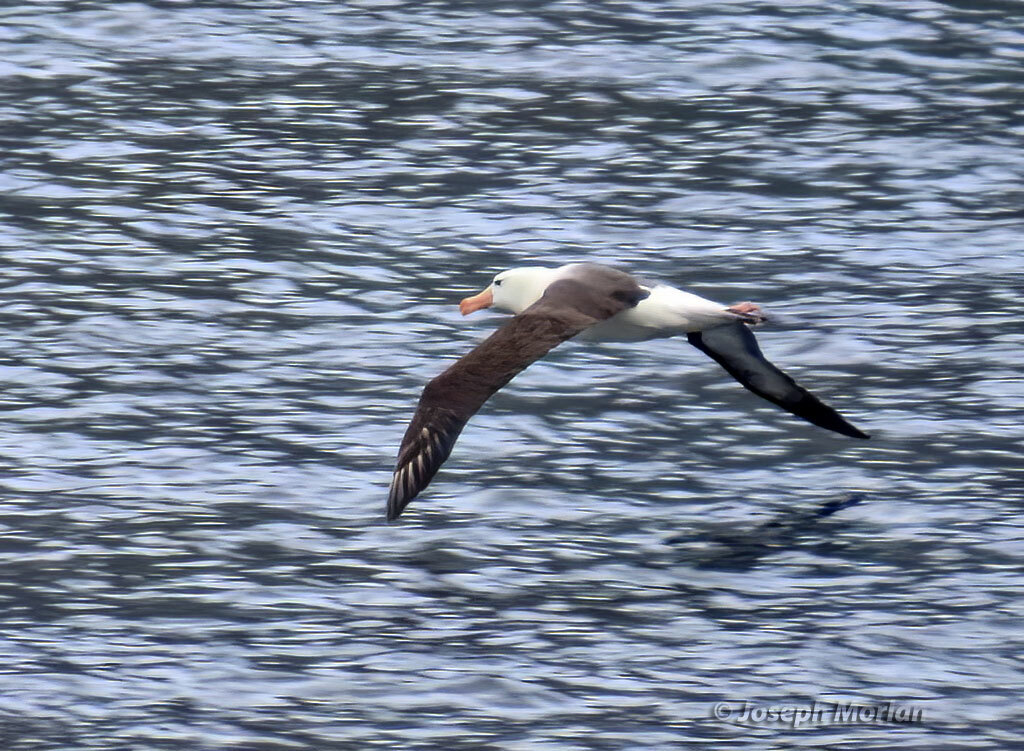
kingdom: Animalia
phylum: Chordata
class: Aves
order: Procellariiformes
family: Diomedeidae
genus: Thalassarche
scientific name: Thalassarche melanophris
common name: Black-browed albatross
